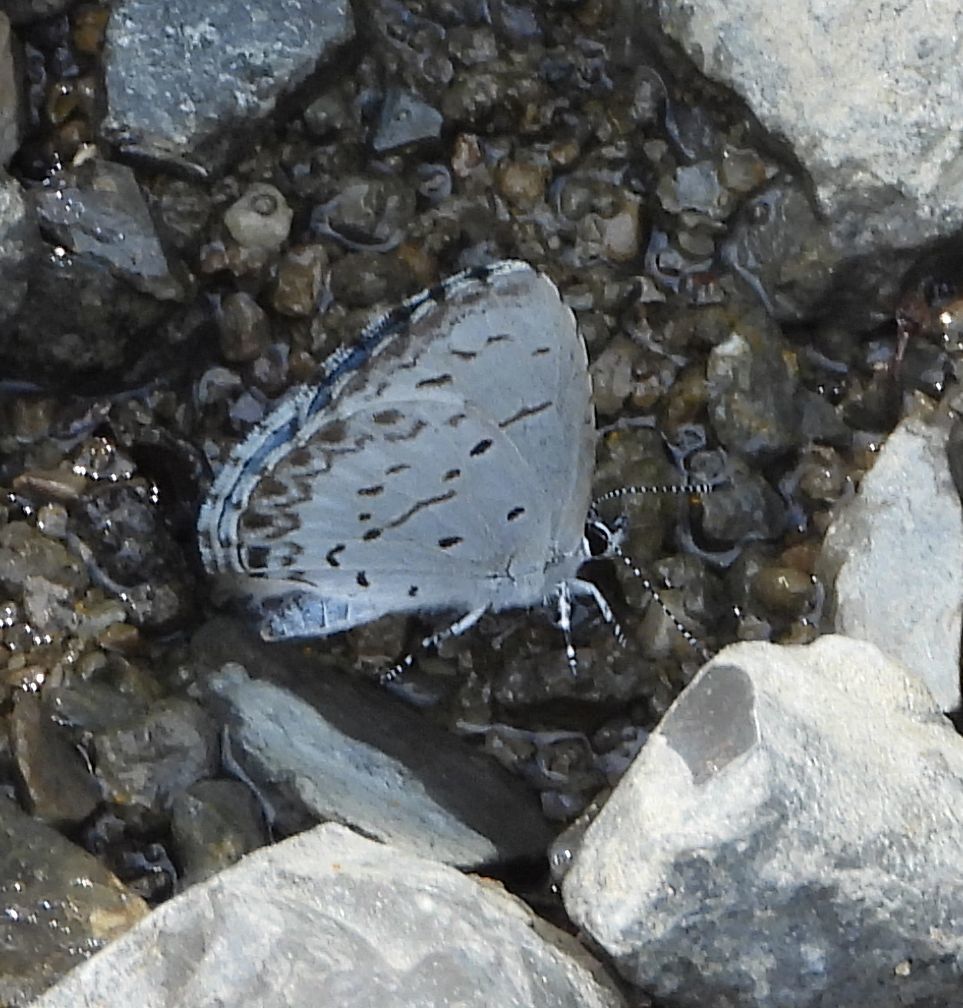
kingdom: Animalia
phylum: Arthropoda
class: Insecta
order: Lepidoptera
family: Lycaenidae
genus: Celastrina
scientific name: Celastrina lucia
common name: Lucia azure
